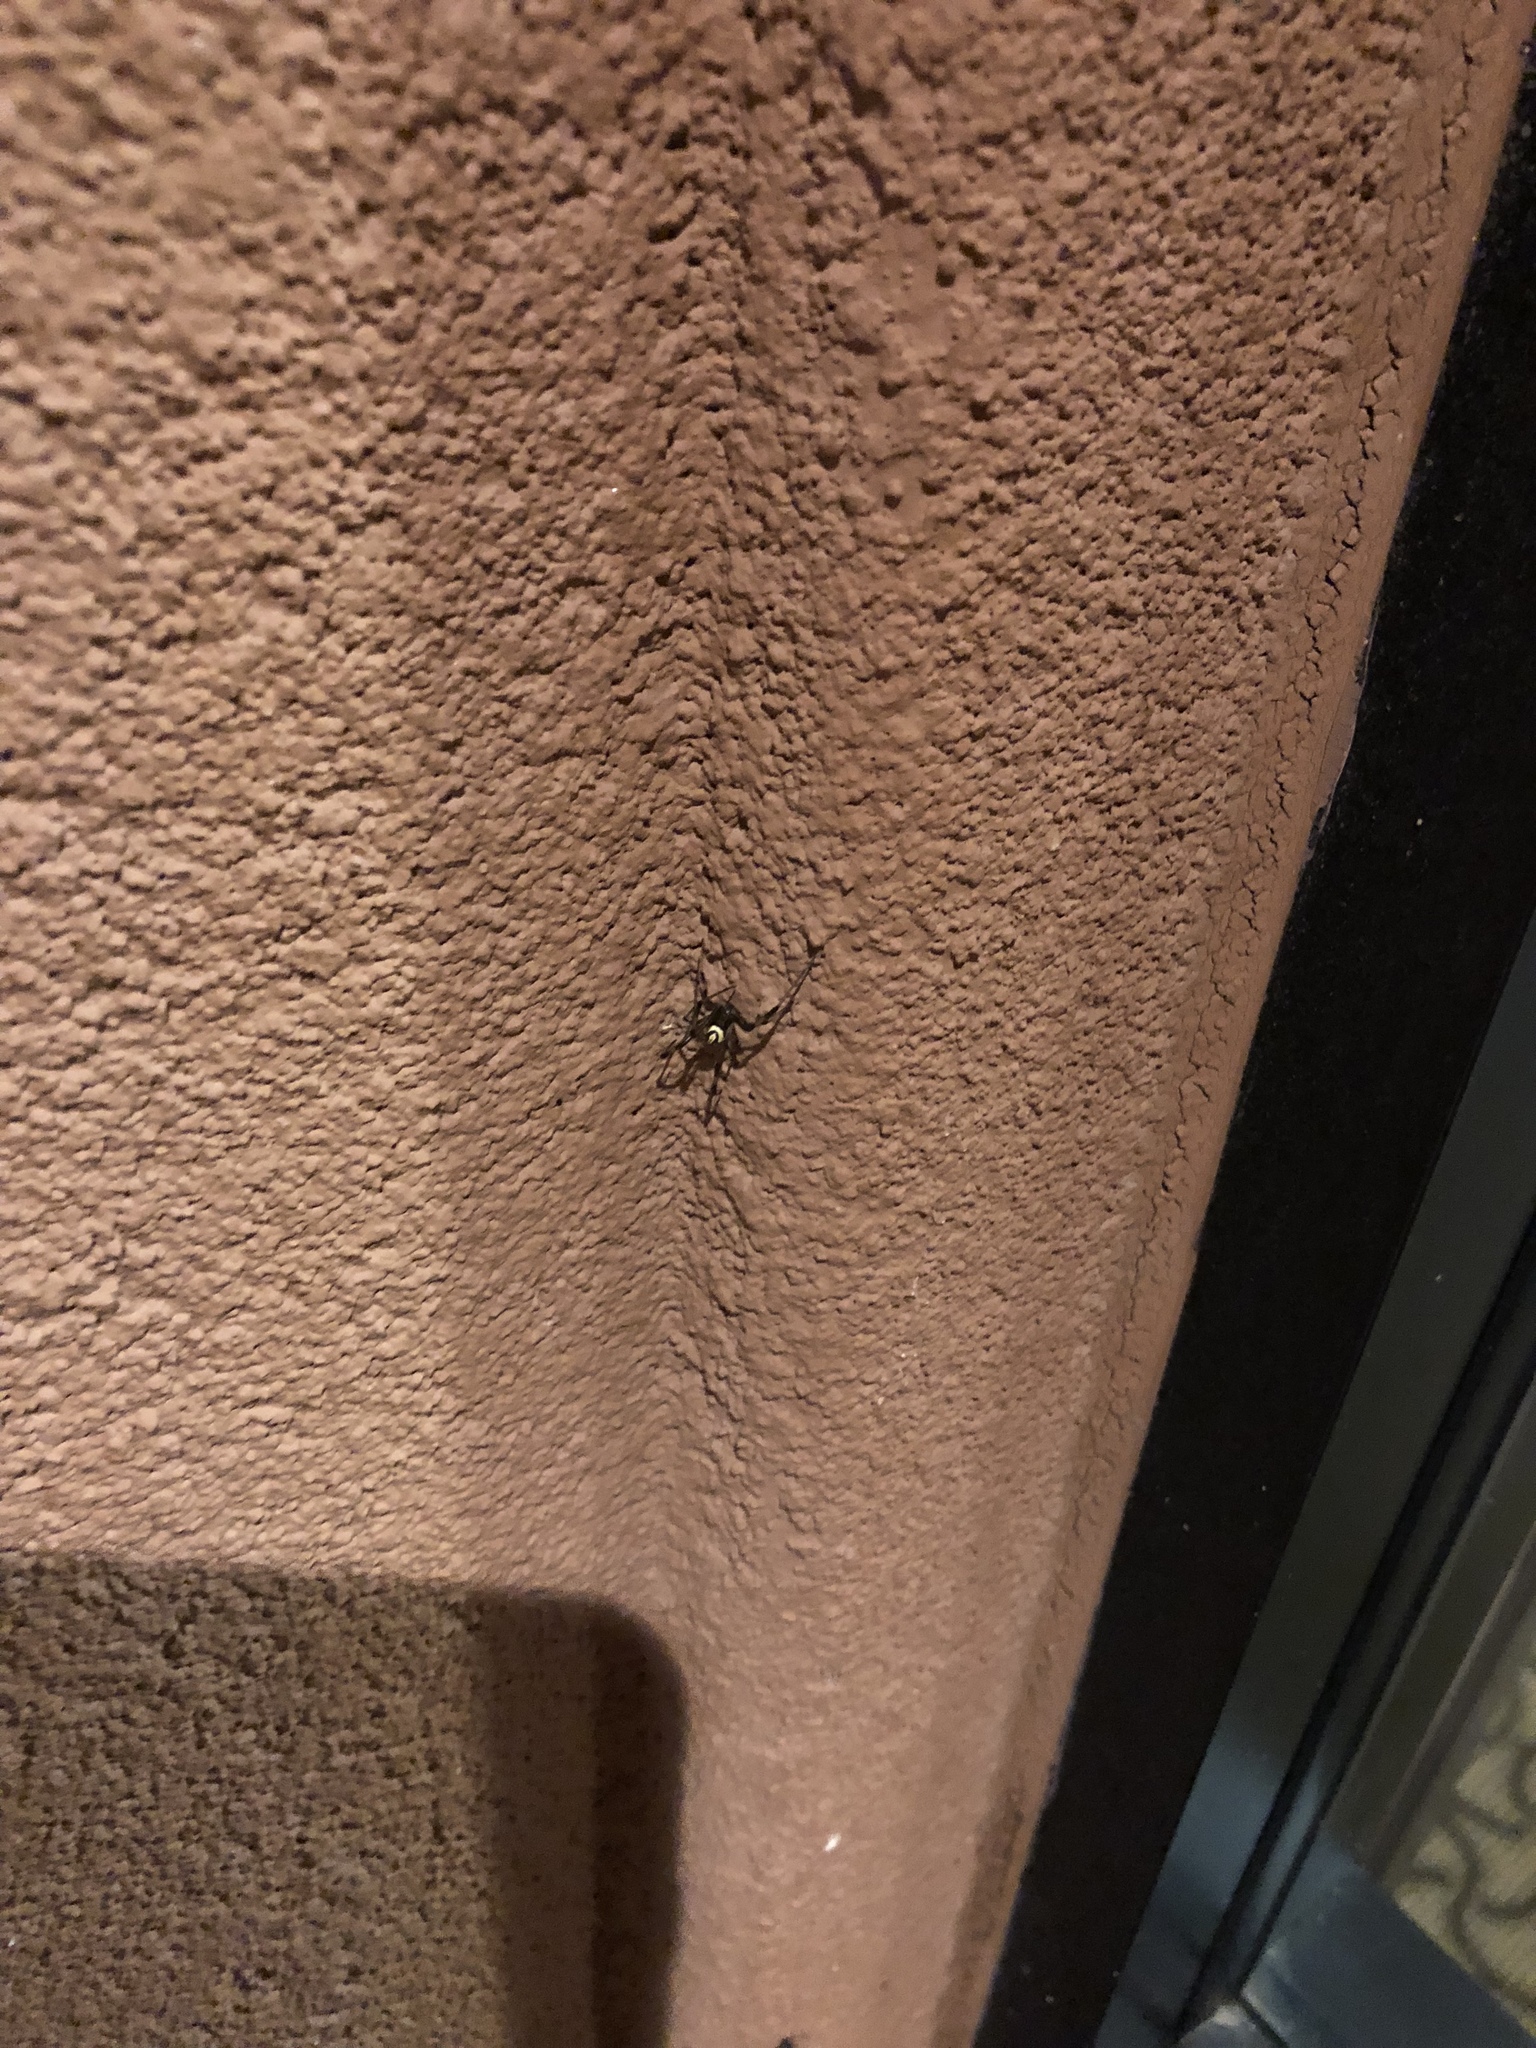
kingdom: Animalia
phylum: Arthropoda
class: Arachnida
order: Araneae
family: Theridiidae
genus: Latrodectus
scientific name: Latrodectus hesperus
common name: Western black widow
